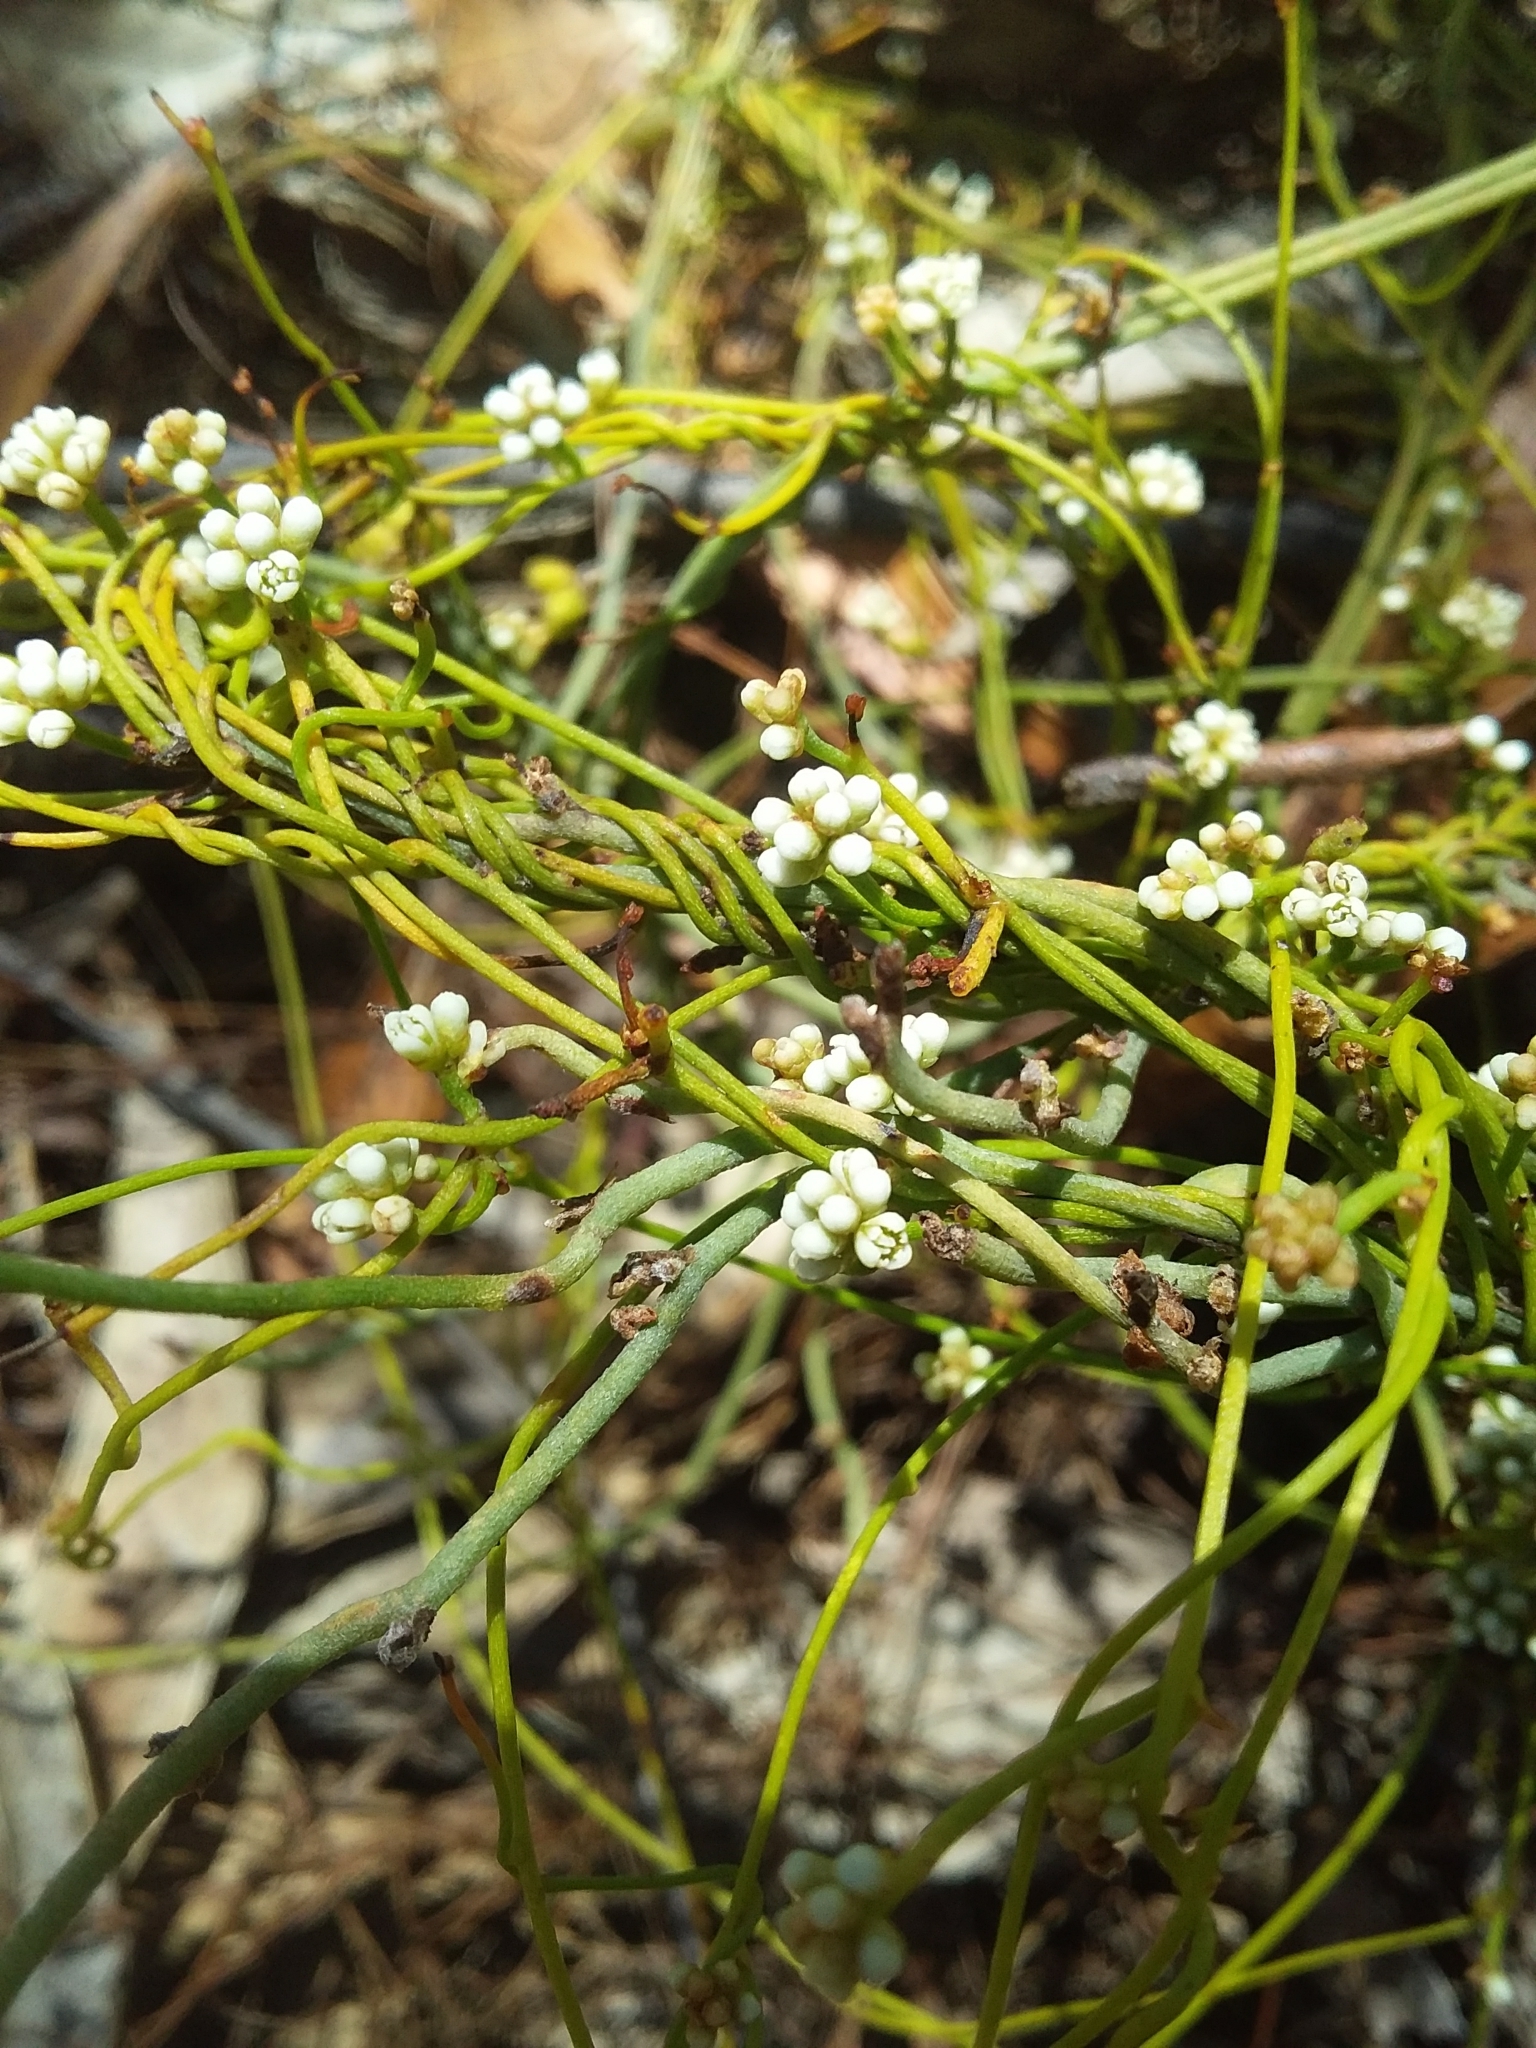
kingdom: Plantae
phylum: Tracheophyta
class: Magnoliopsida
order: Laurales
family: Lauraceae
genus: Cassytha
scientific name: Cassytha glabella
